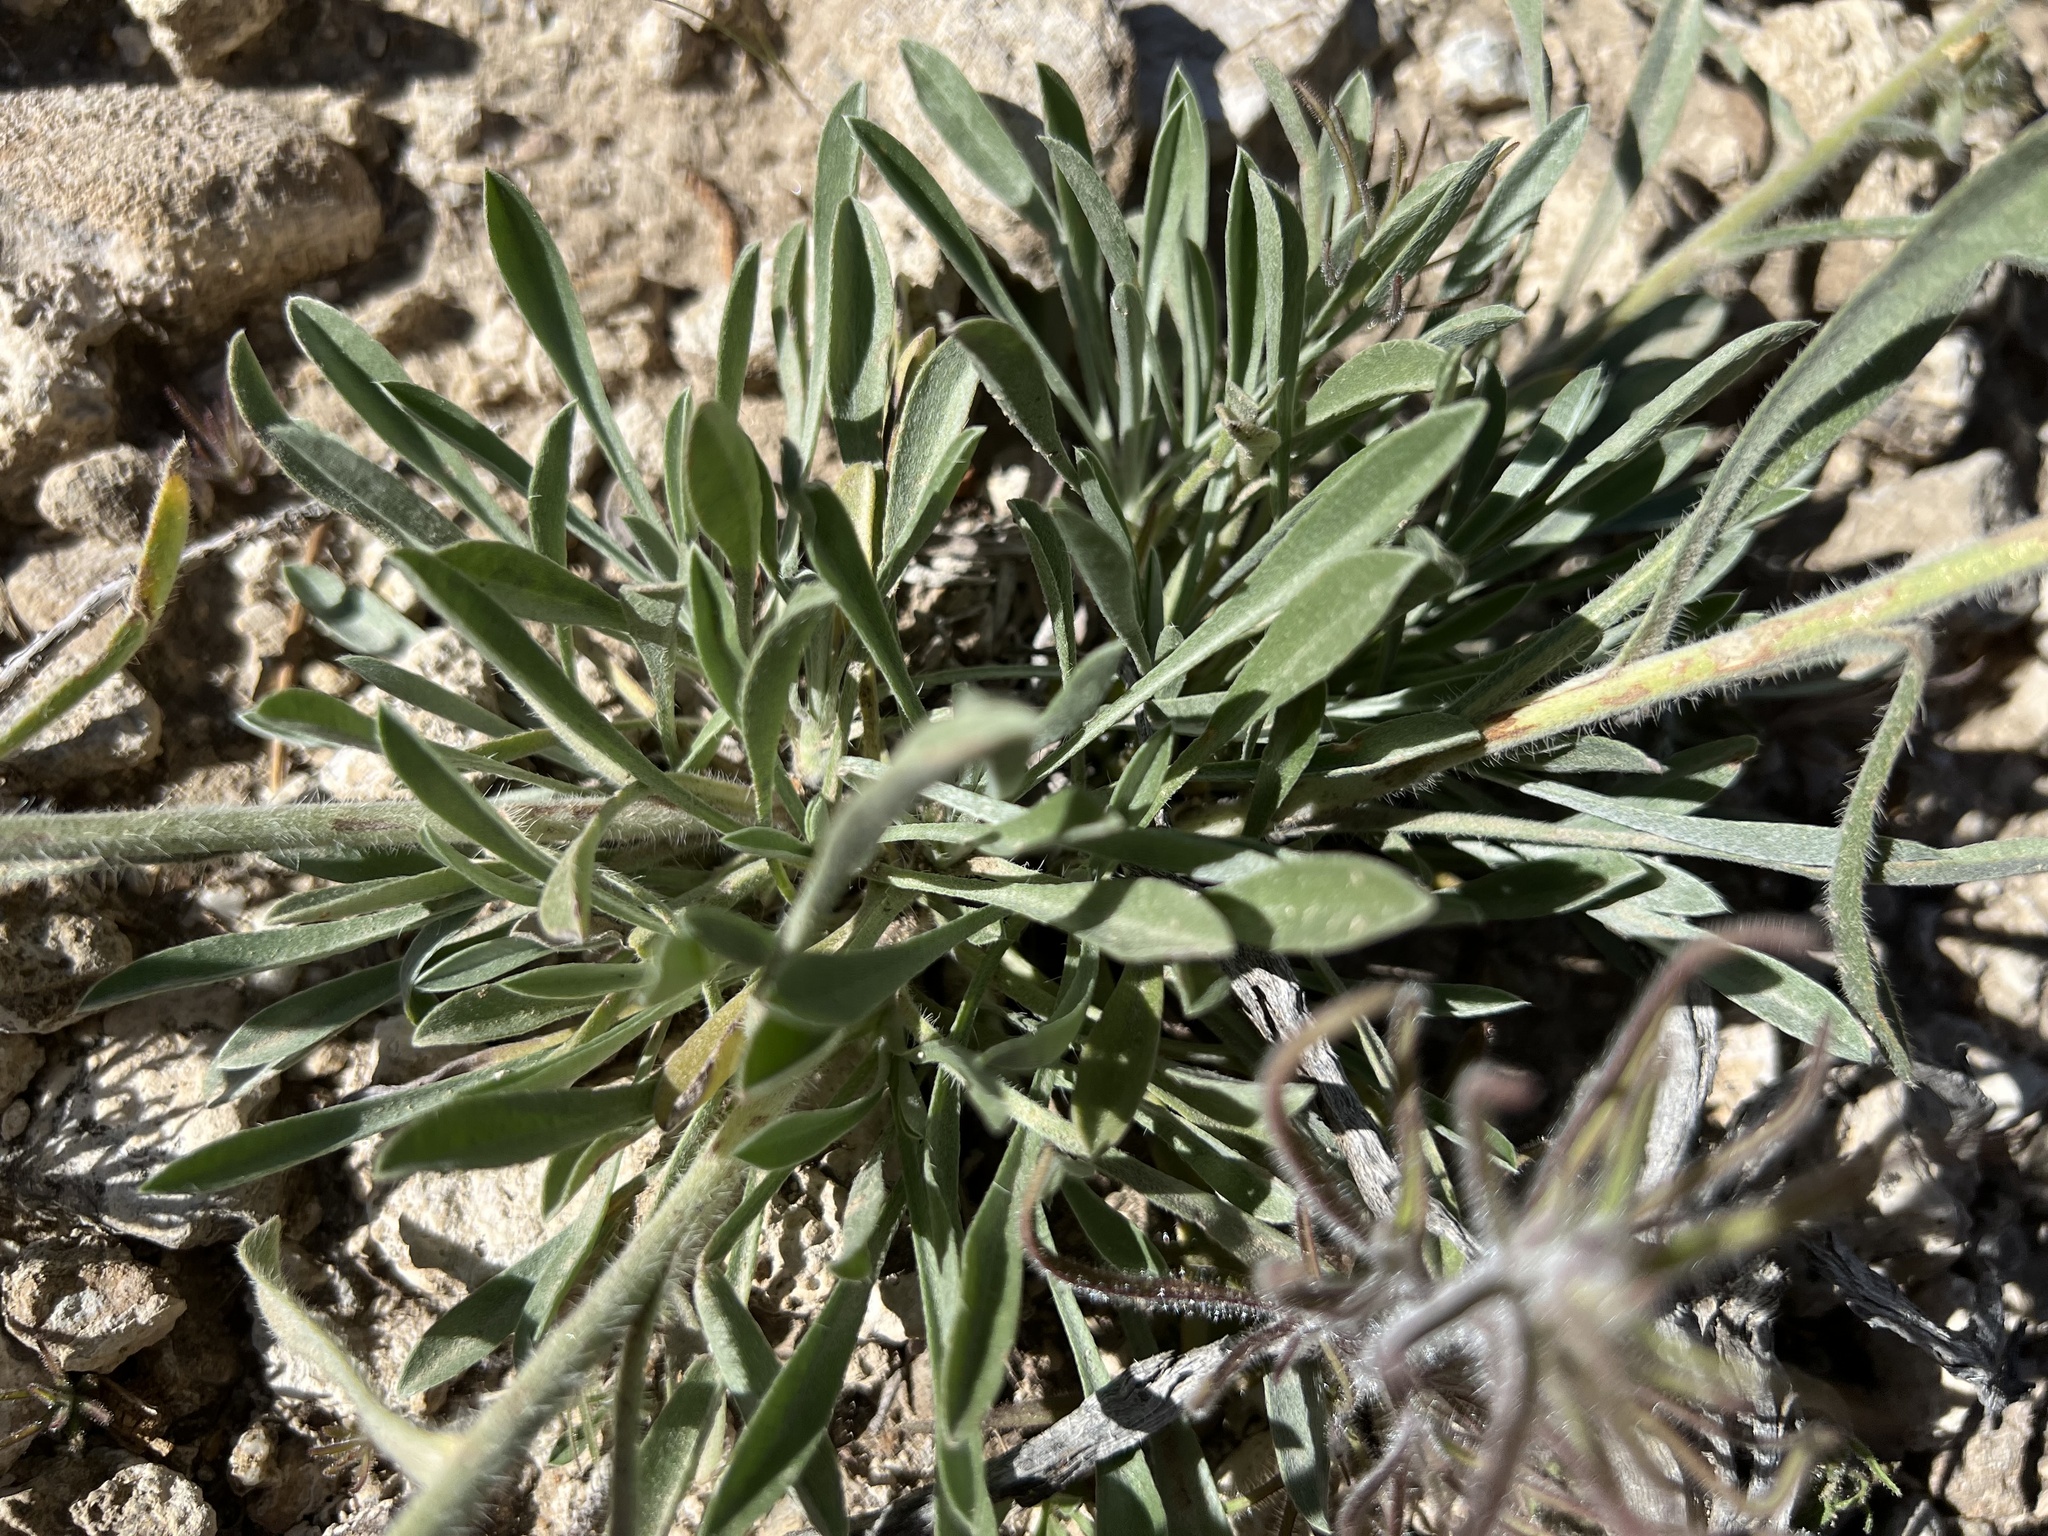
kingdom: Plantae
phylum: Tracheophyta
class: Magnoliopsida
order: Boraginales
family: Boraginaceae
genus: Oreocarya
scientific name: Oreocarya flavoculata
